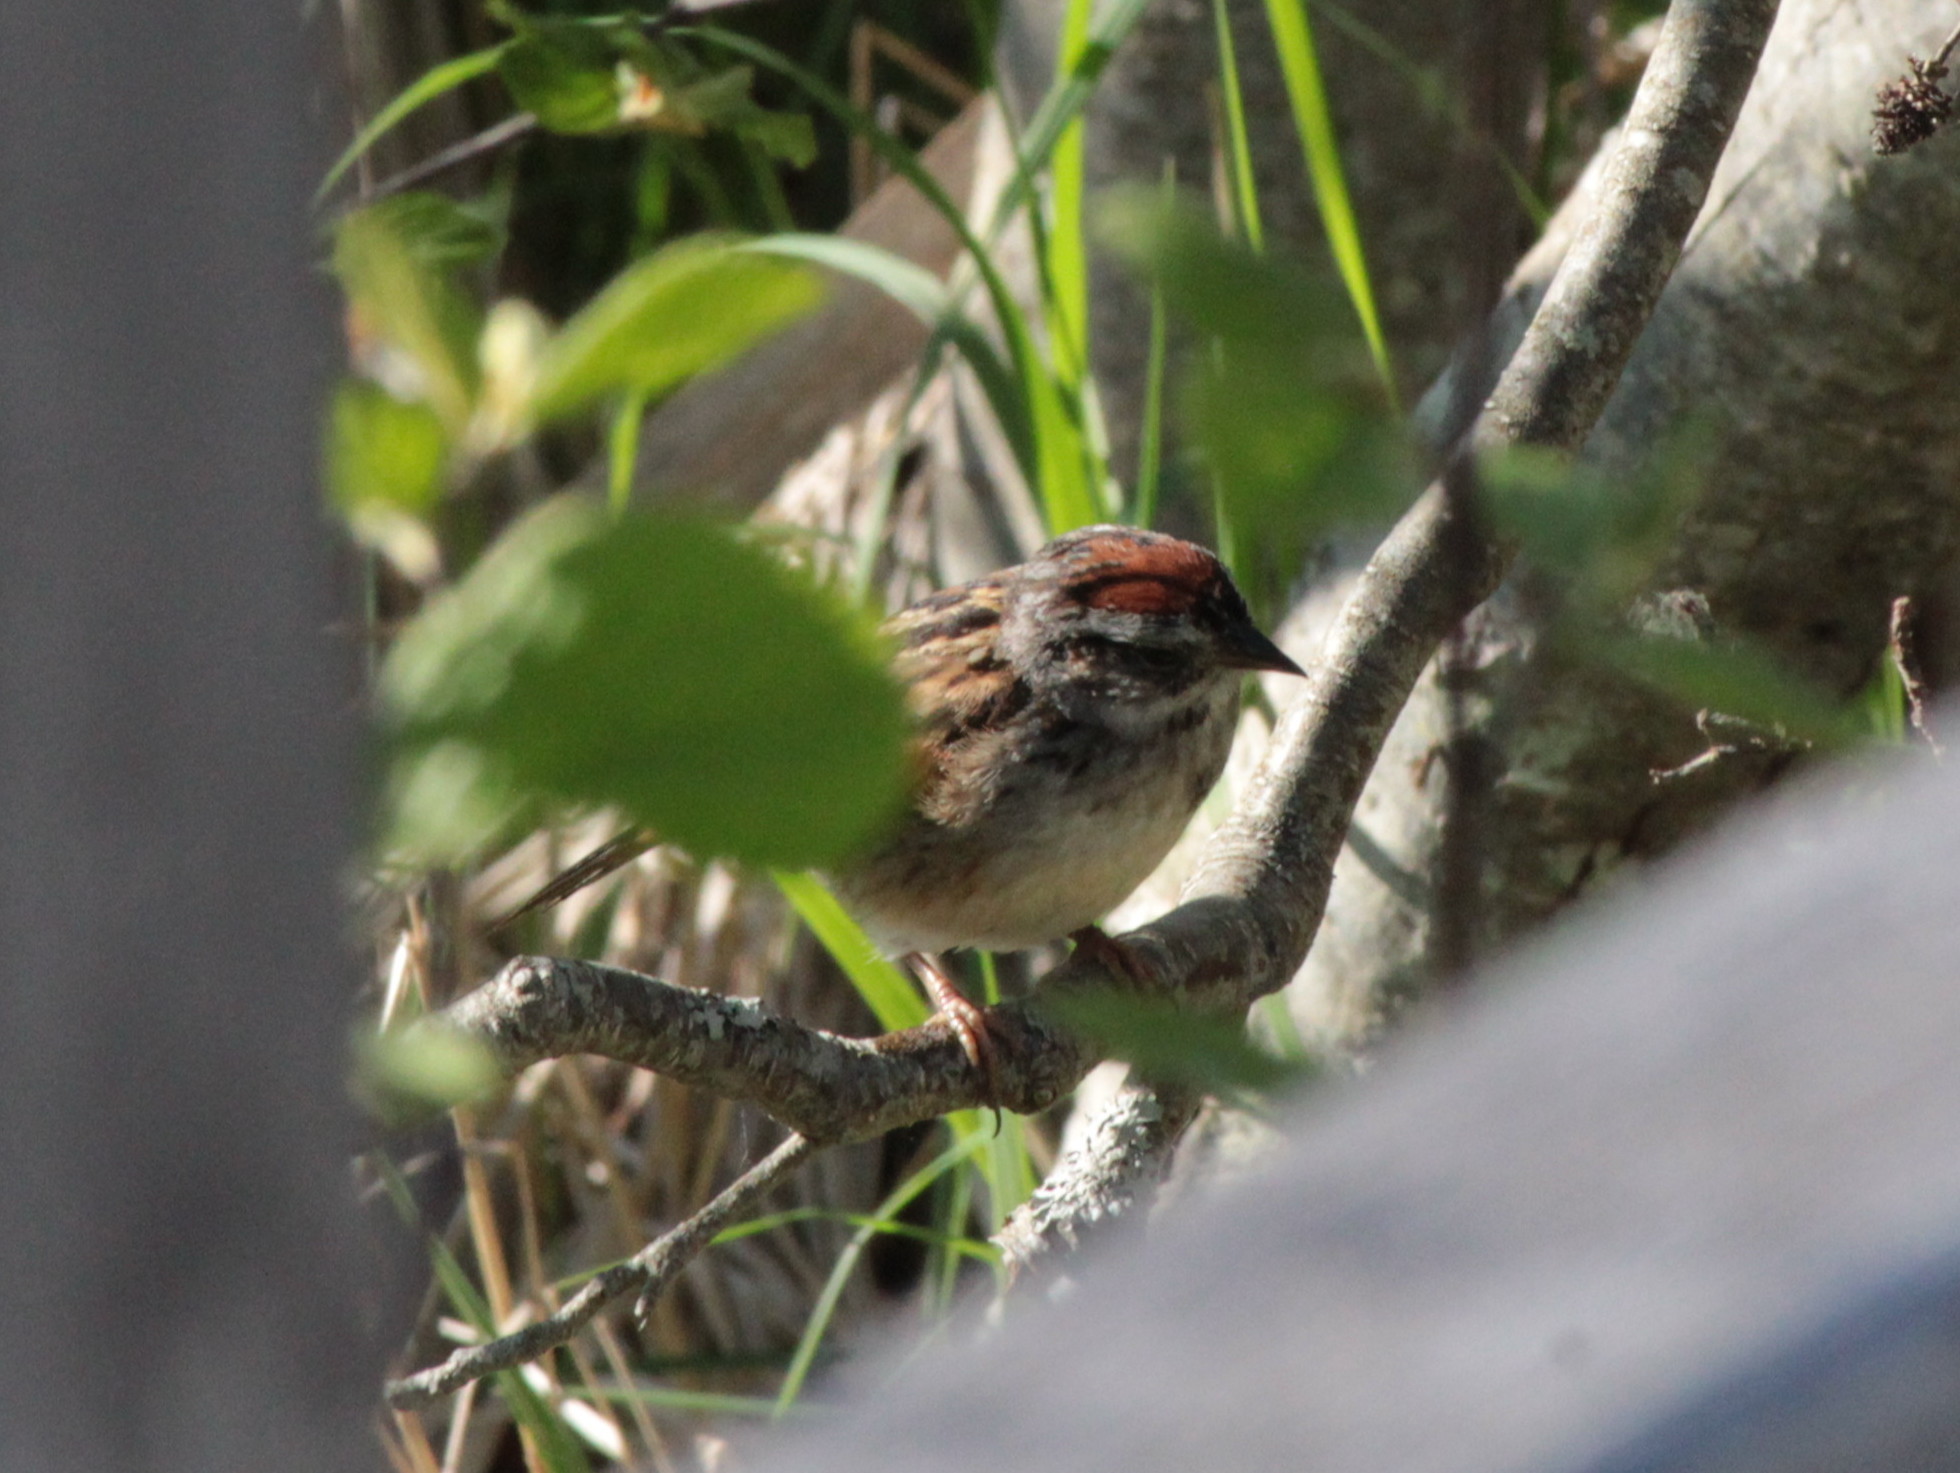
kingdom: Animalia
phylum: Chordata
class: Aves
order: Passeriformes
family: Passerellidae
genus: Melospiza
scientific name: Melospiza georgiana
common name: Swamp sparrow
